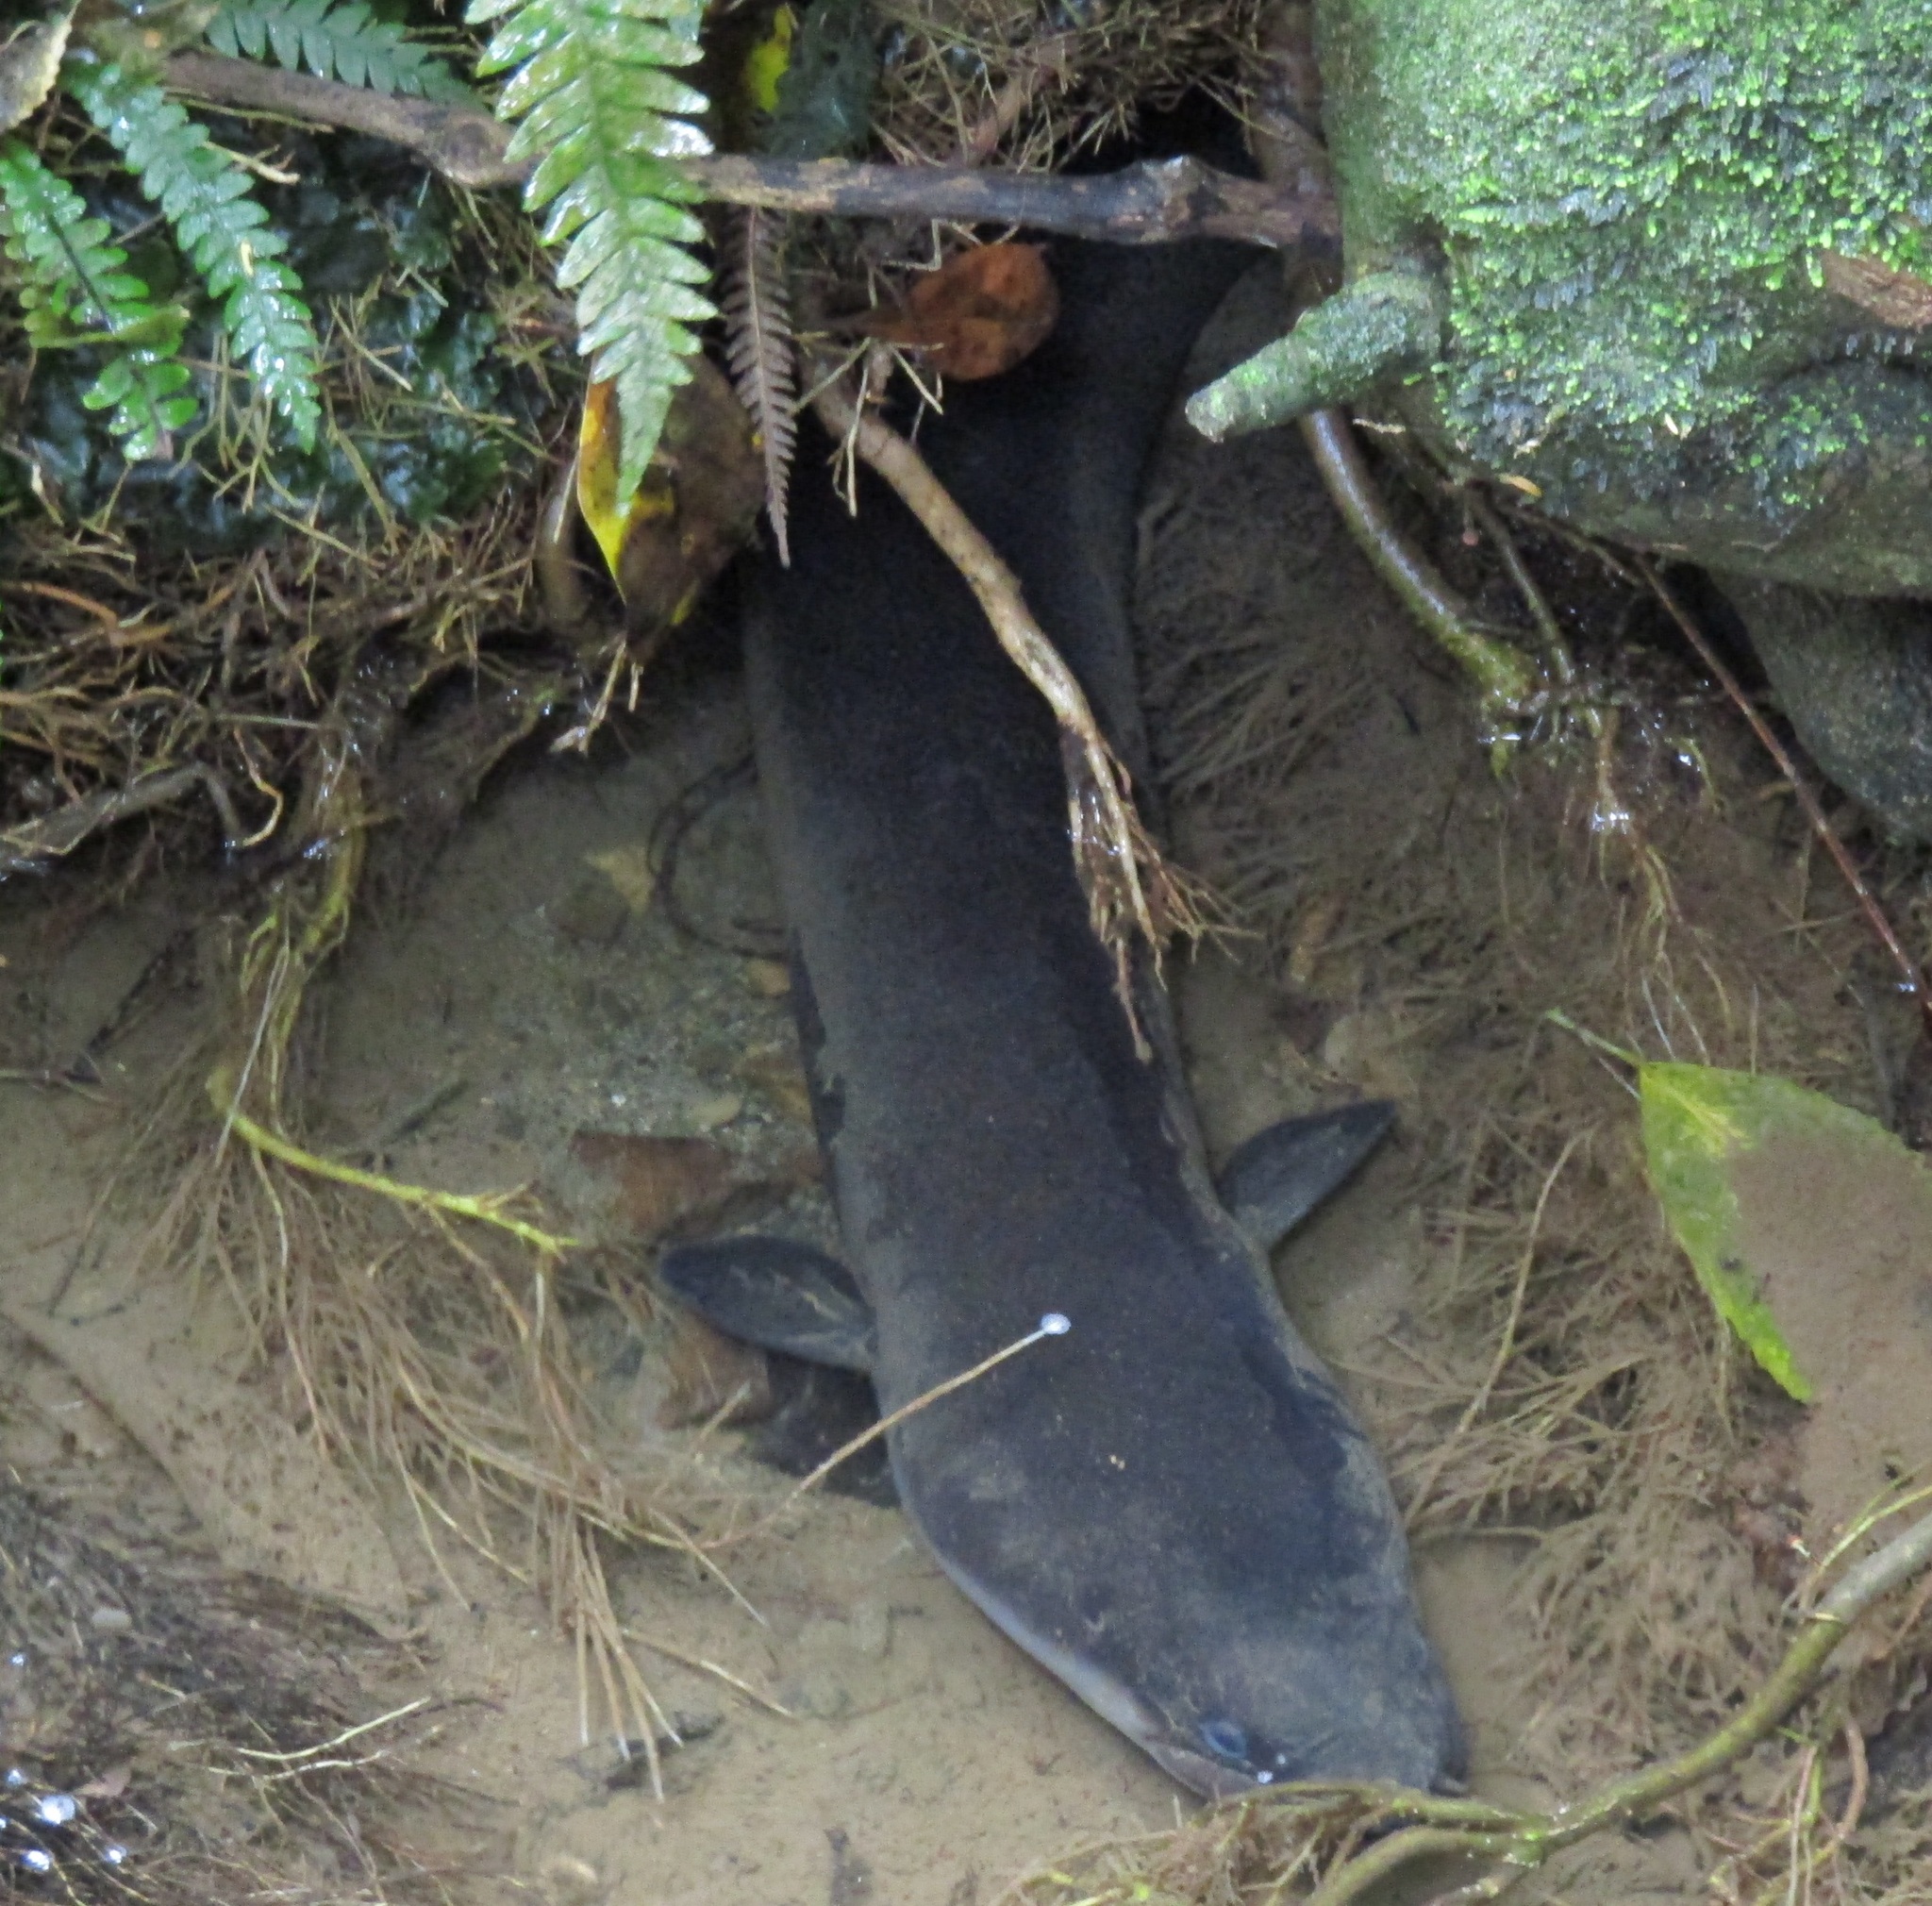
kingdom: Animalia
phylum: Chordata
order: Anguilliformes
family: Anguillidae
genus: Anguilla
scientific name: Anguilla dieffenbachii
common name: New zealand longfin eel
